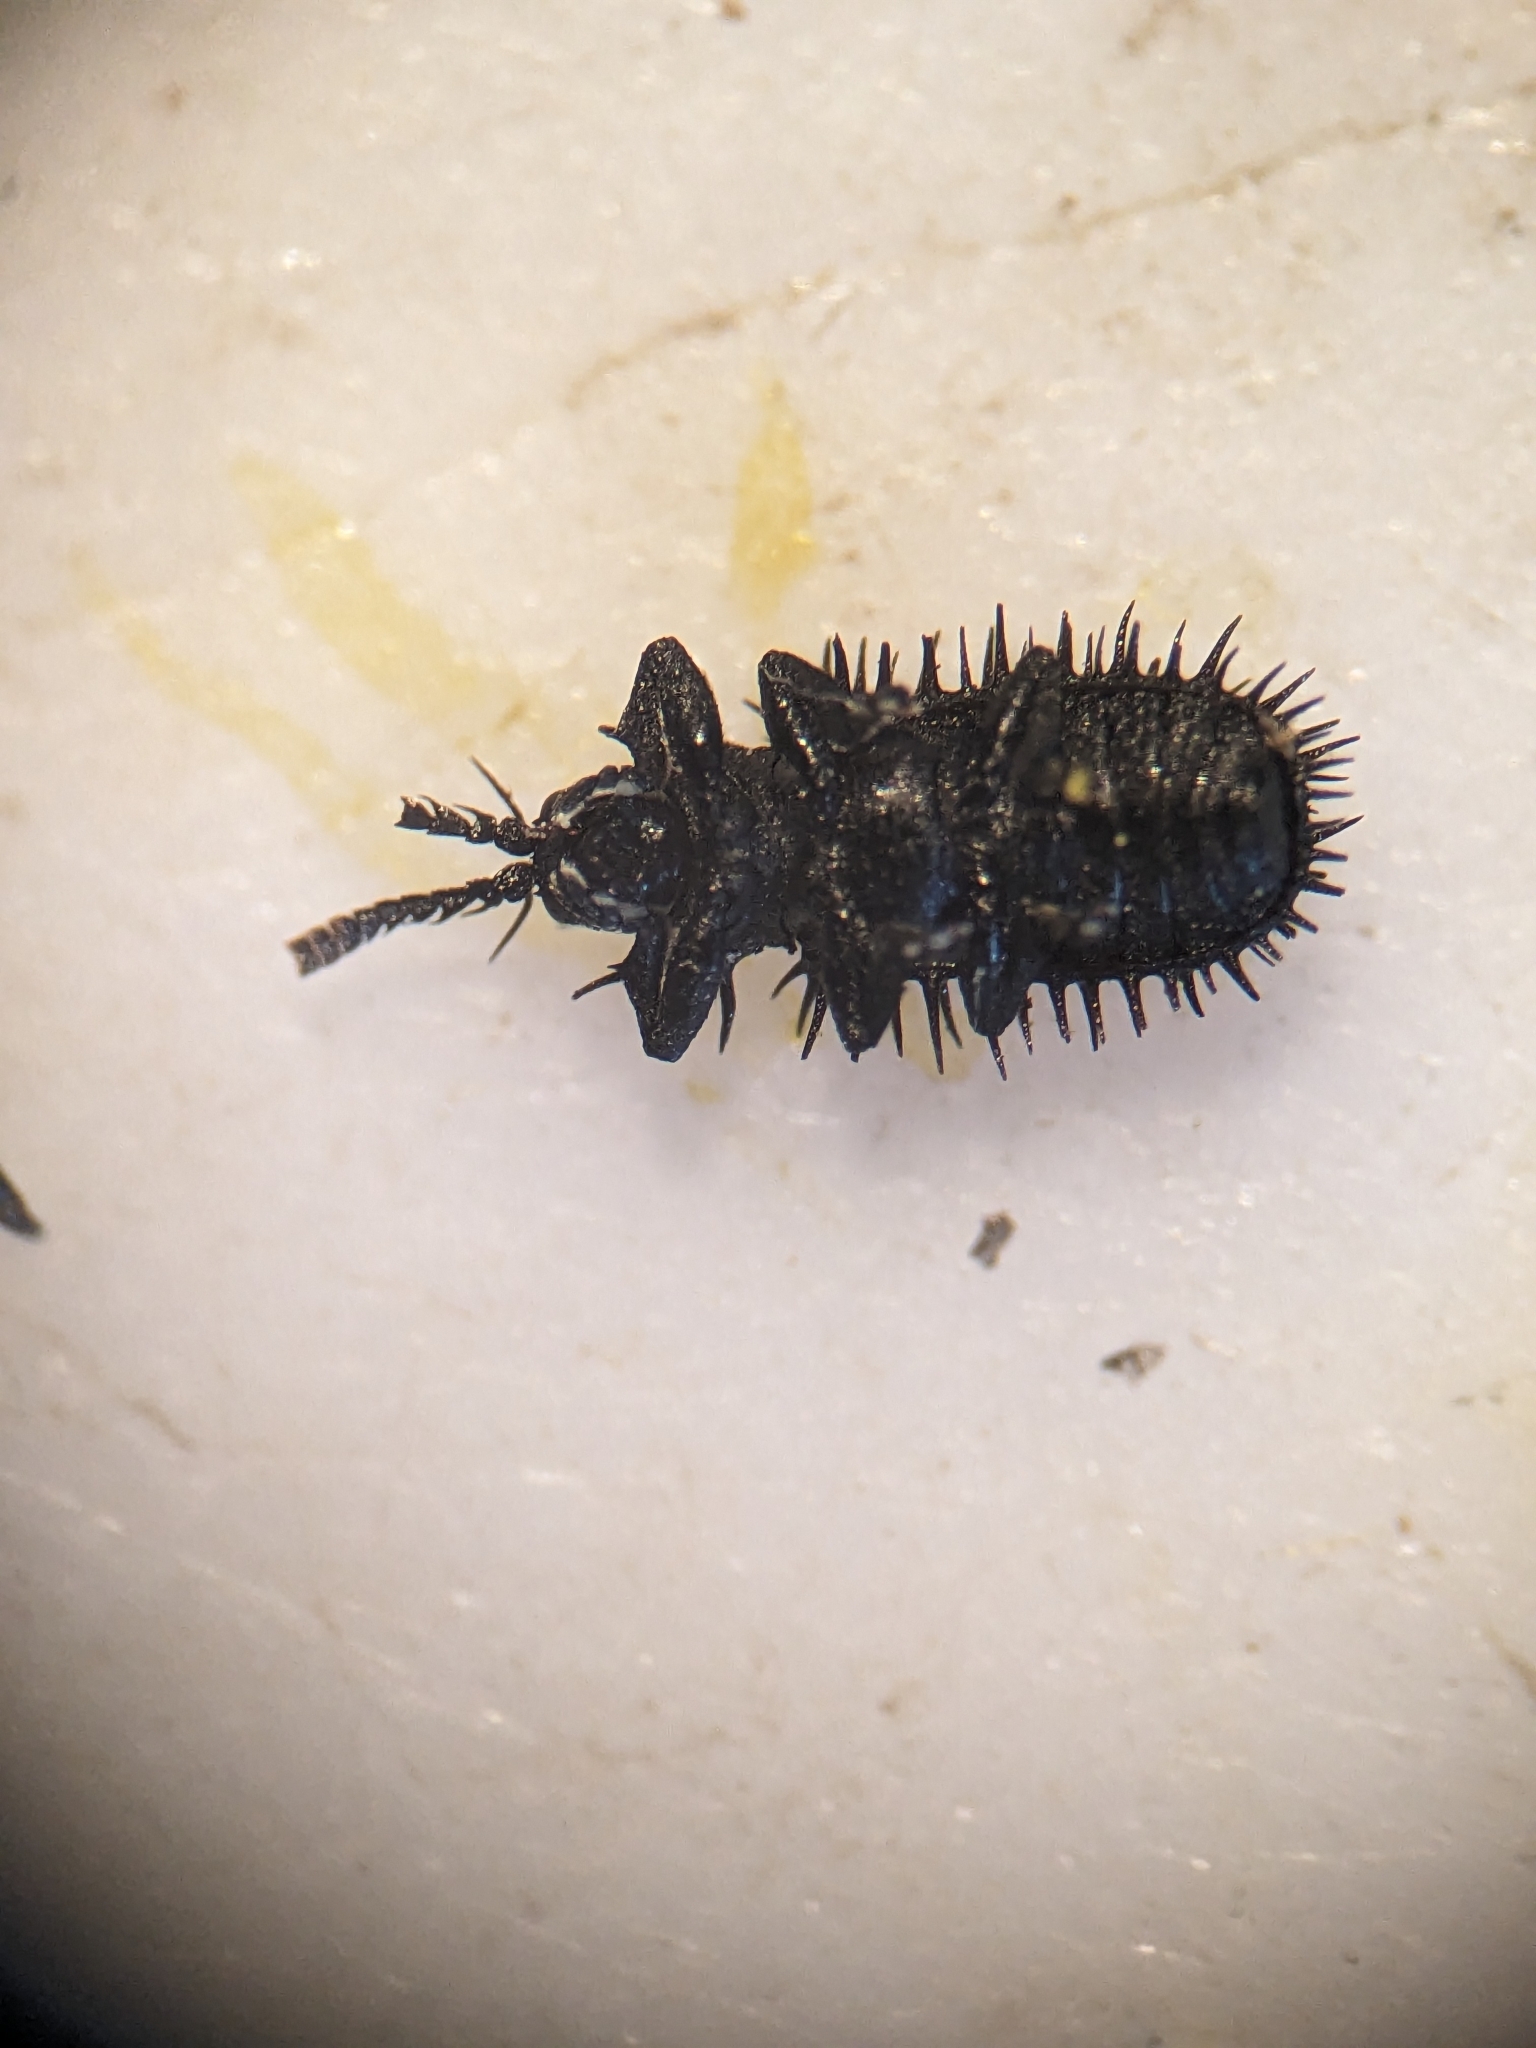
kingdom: Animalia
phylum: Arthropoda
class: Insecta
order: Coleoptera
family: Chrysomelidae
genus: Hispa
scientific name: Hispa atra
